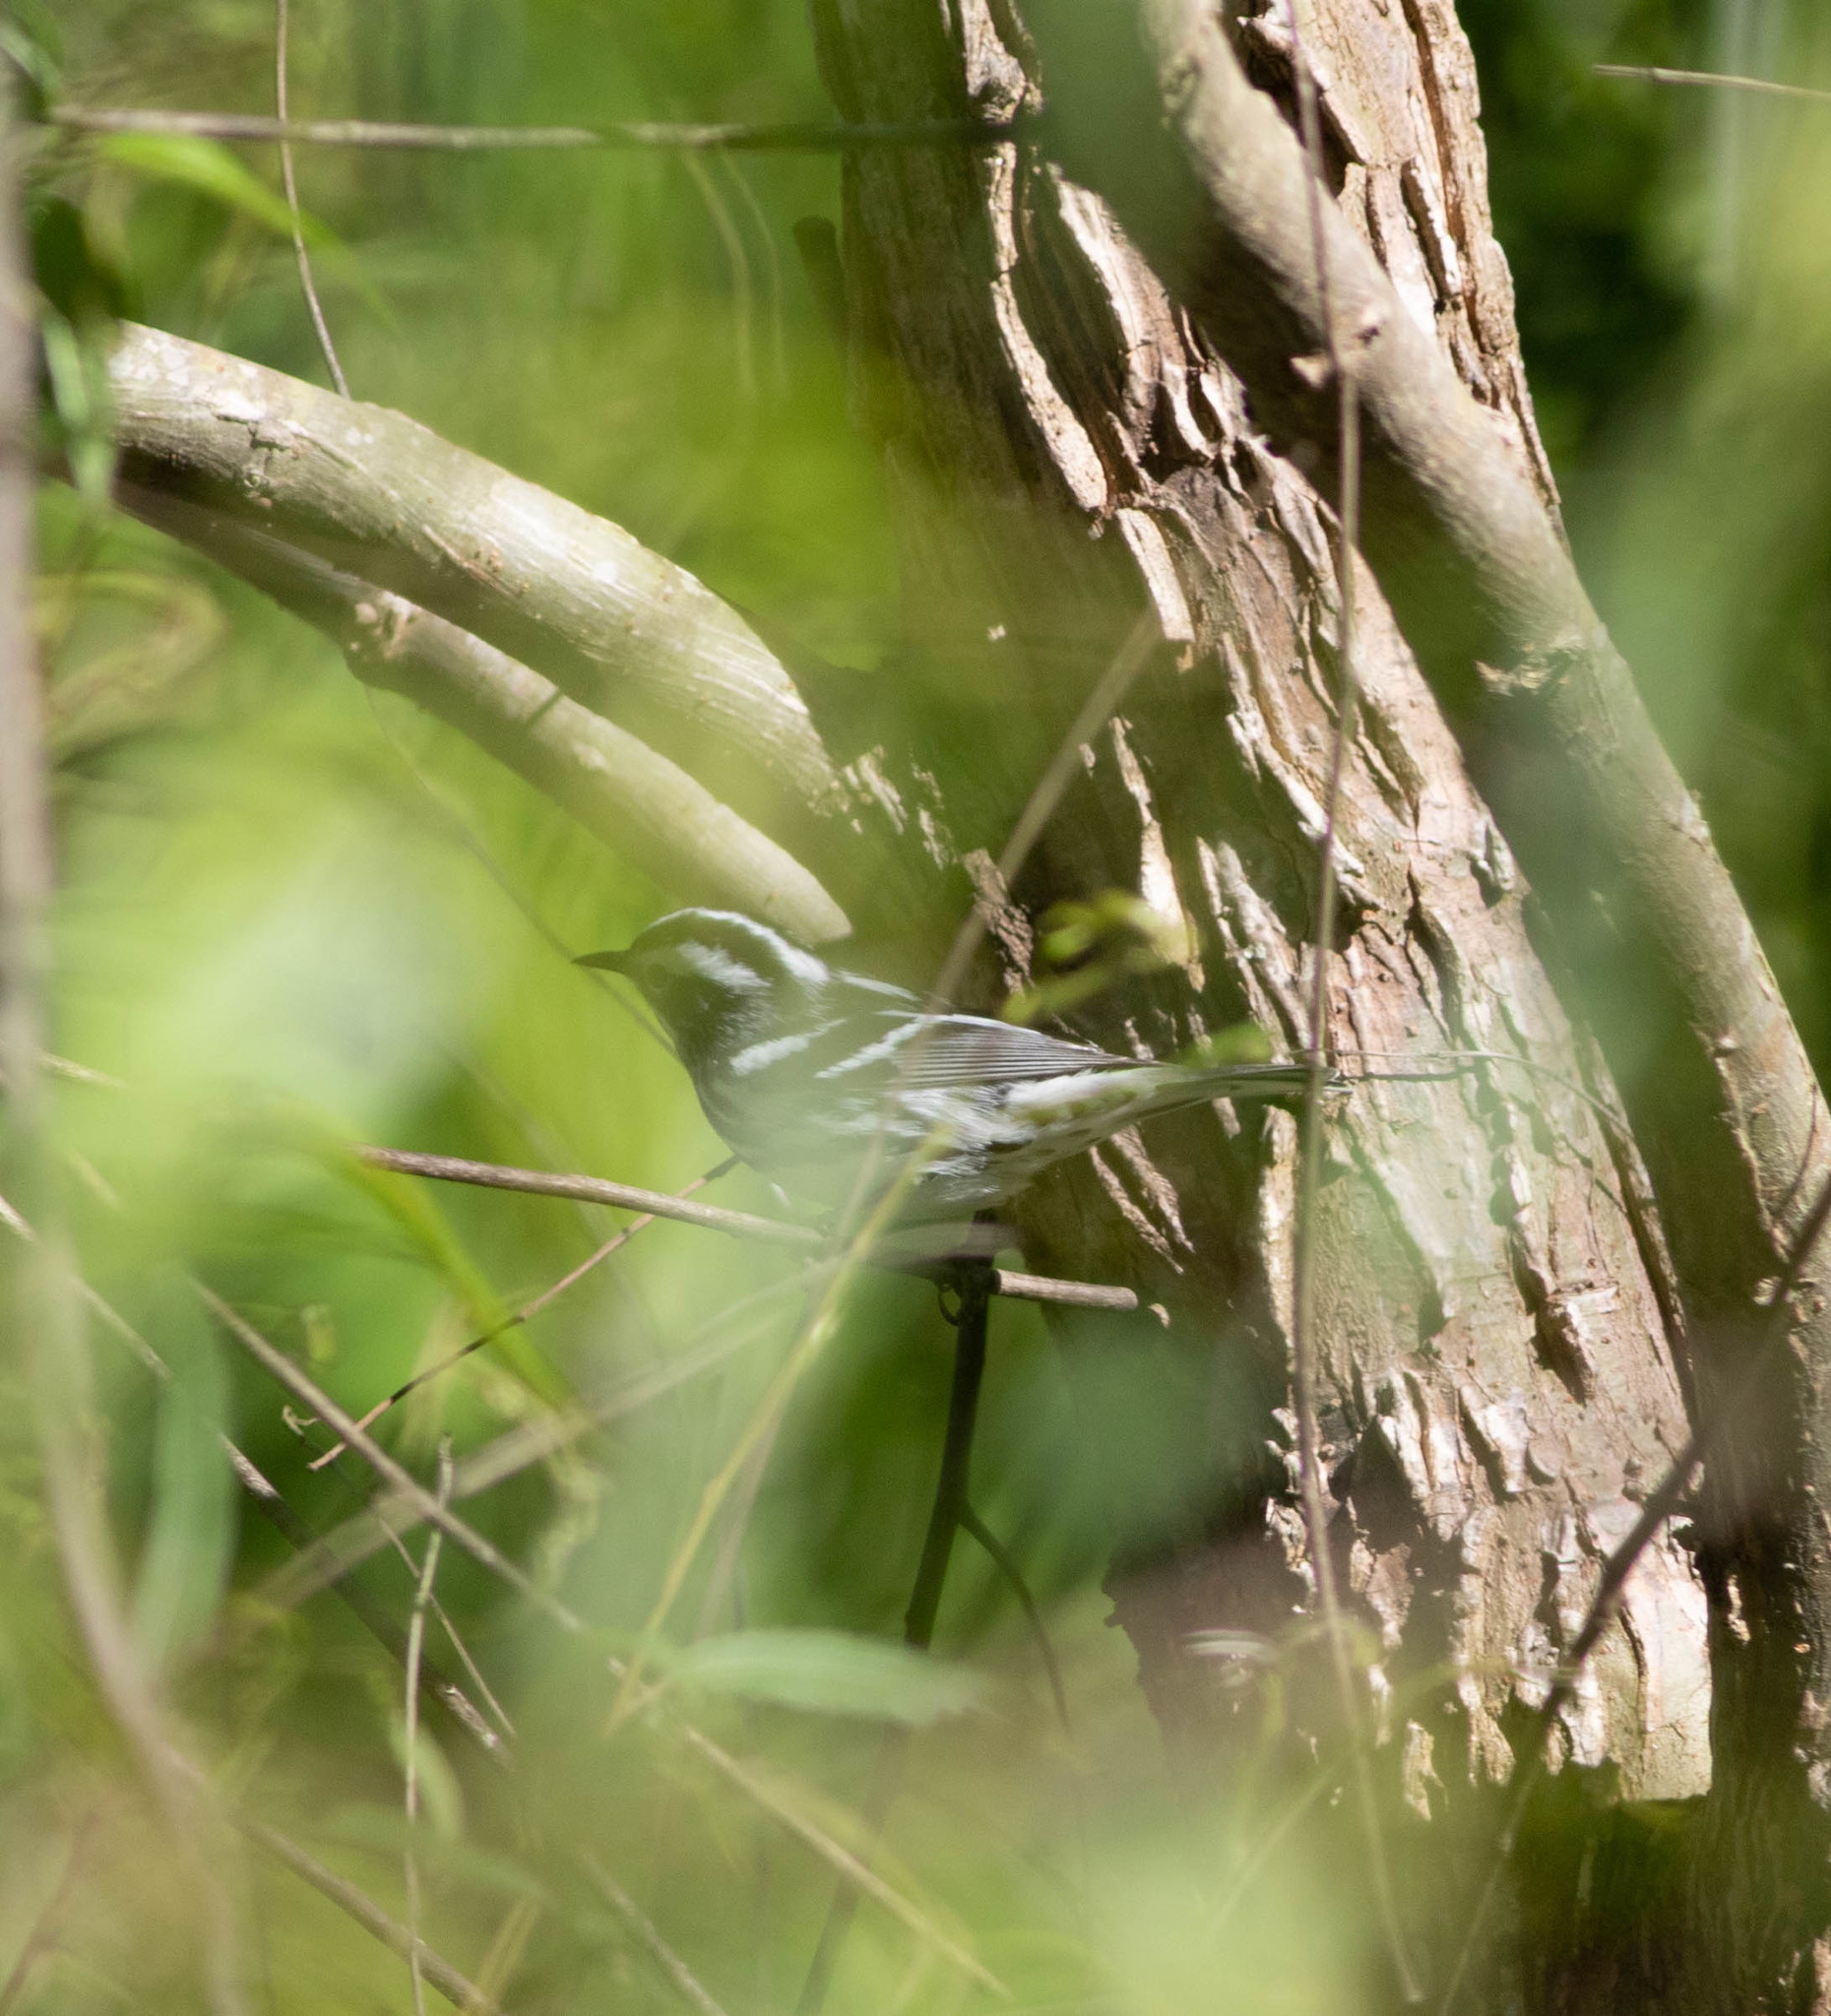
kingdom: Animalia
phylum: Chordata
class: Aves
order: Passeriformes
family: Parulidae
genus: Mniotilta
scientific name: Mniotilta varia
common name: Black-and-white warbler
